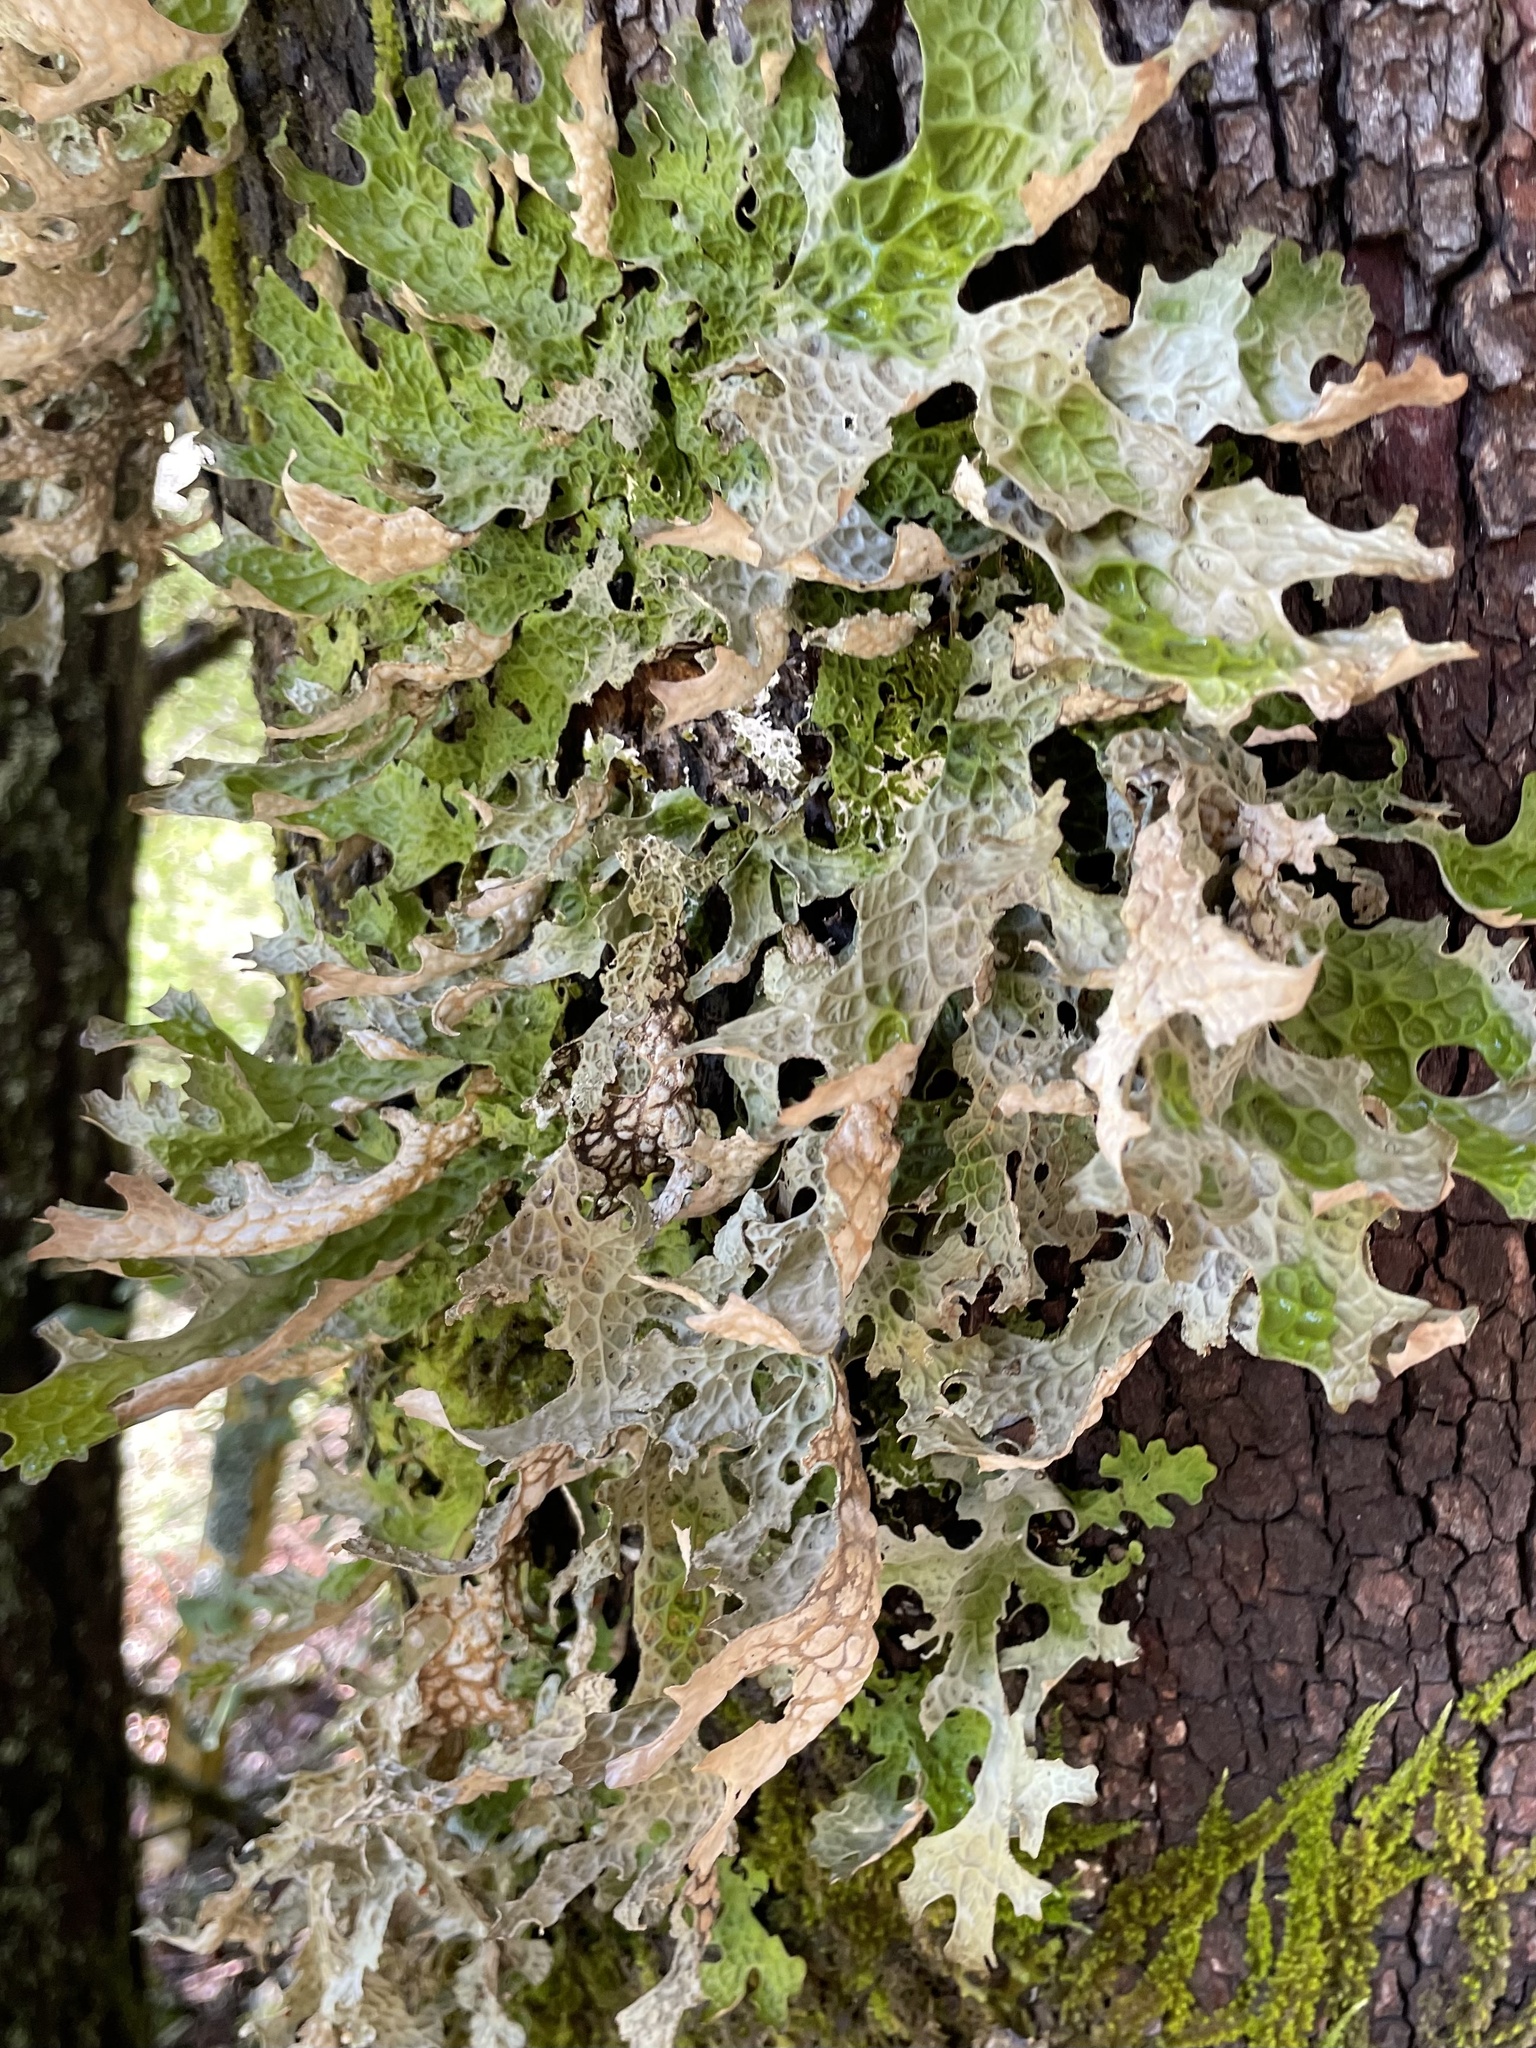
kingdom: Fungi
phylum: Ascomycota
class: Lecanoromycetes
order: Peltigerales
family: Lobariaceae
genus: Lobaria
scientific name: Lobaria pulmonaria
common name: Lungwort
